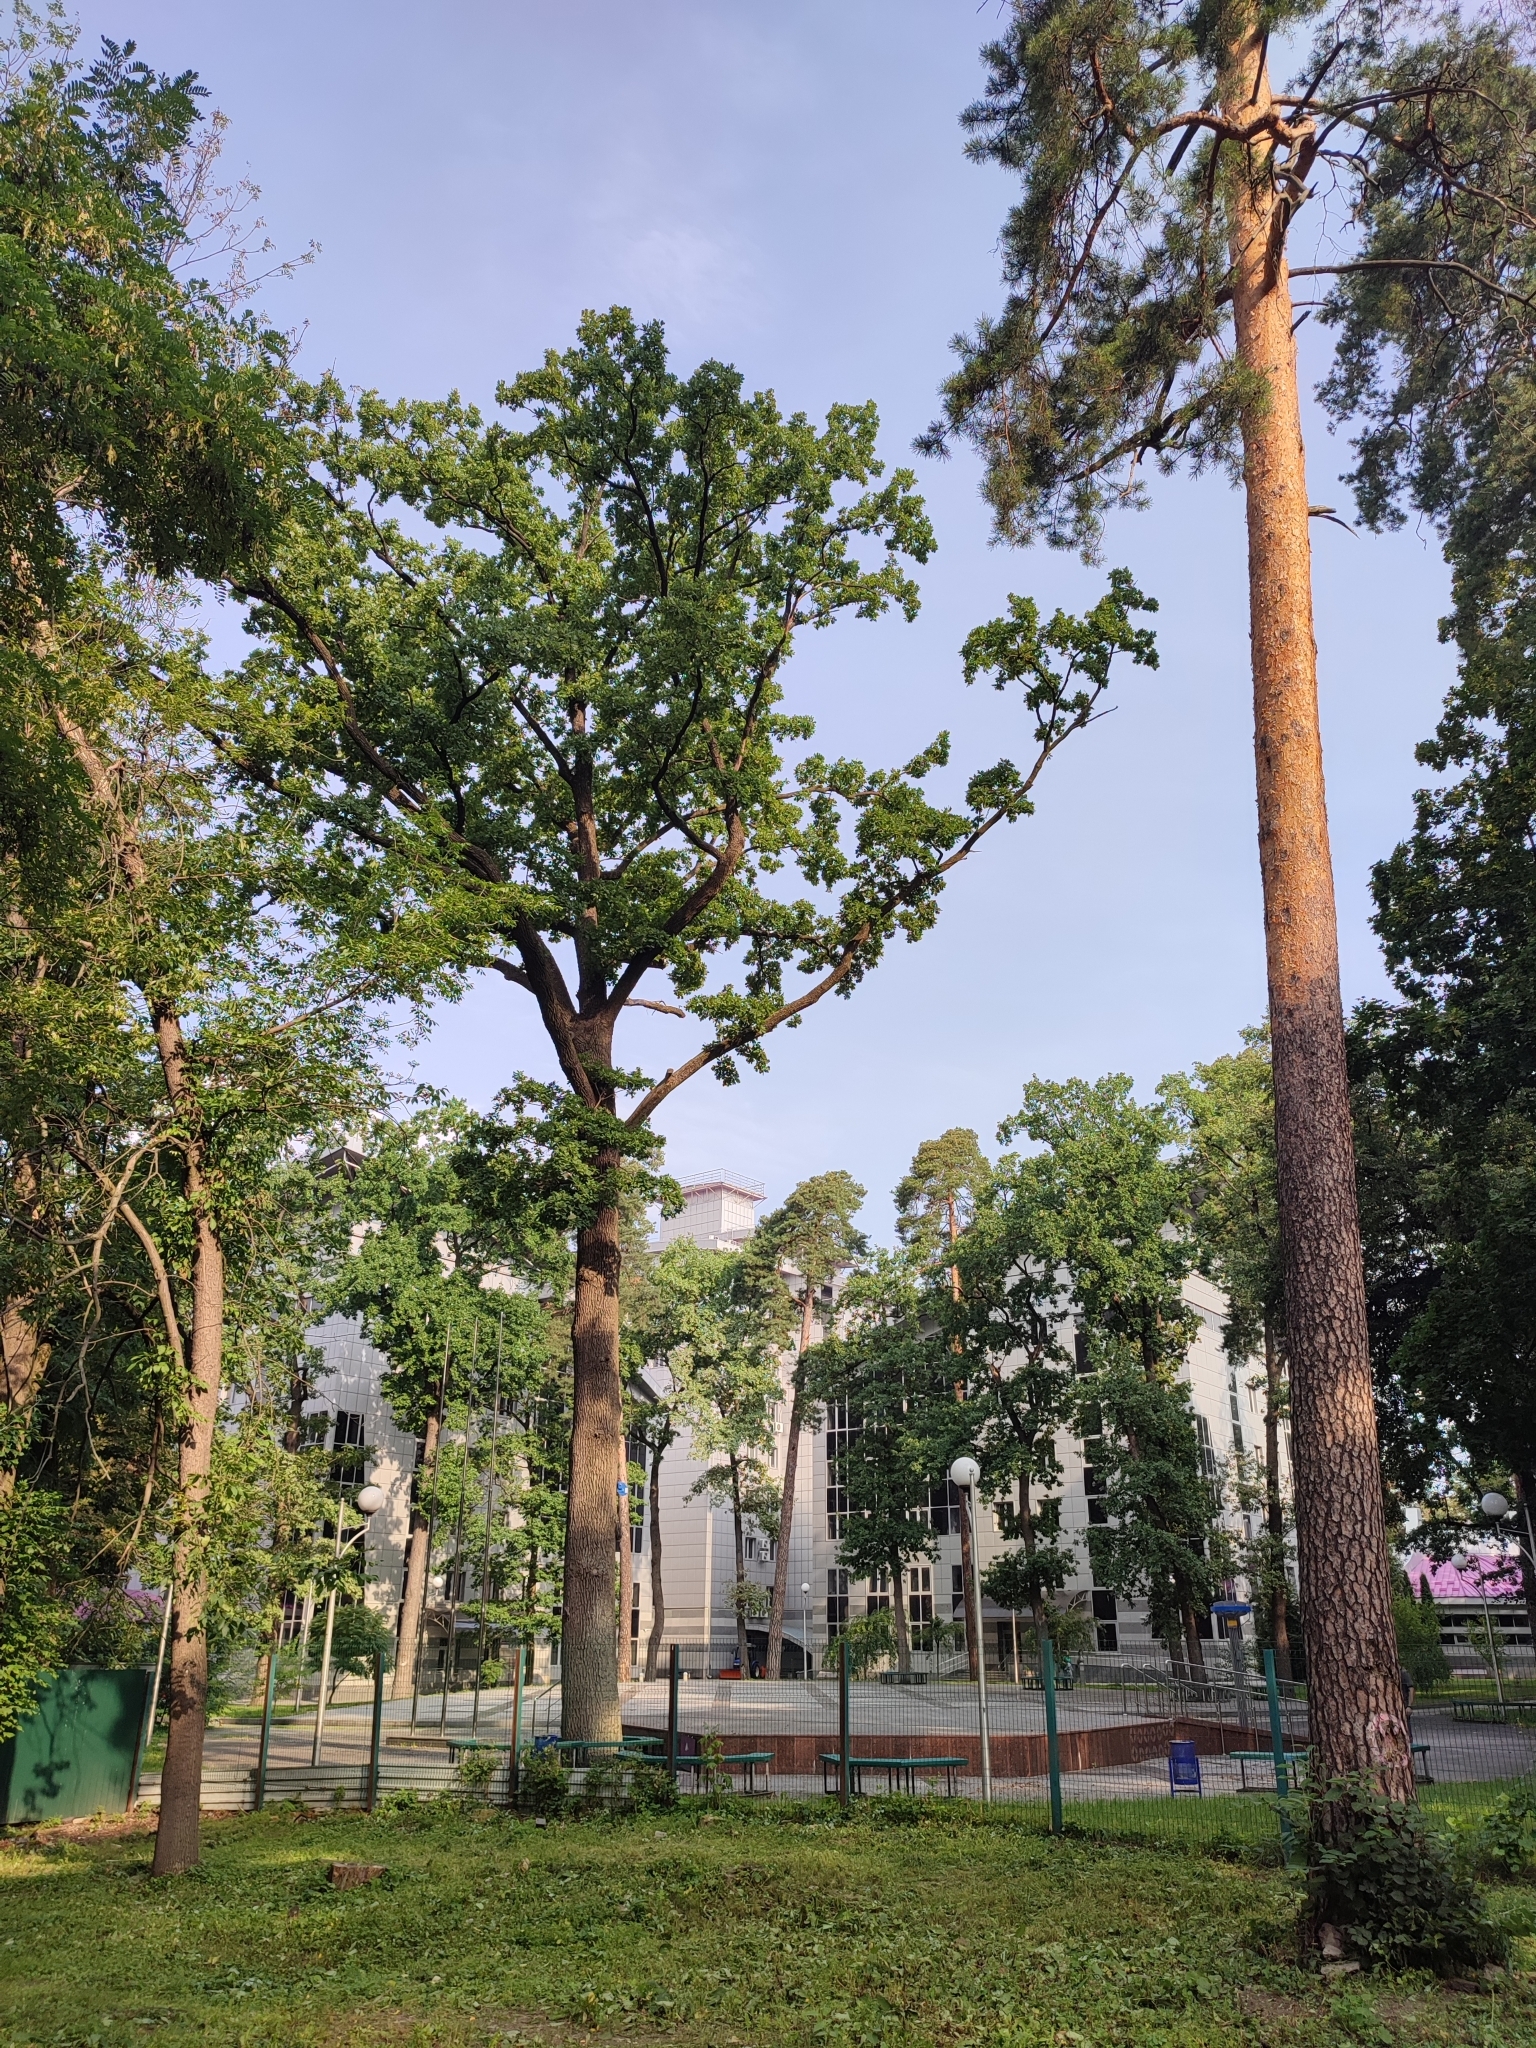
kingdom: Plantae
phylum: Tracheophyta
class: Magnoliopsida
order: Fagales
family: Fagaceae
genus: Quercus
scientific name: Quercus robur
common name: Pedunculate oak
